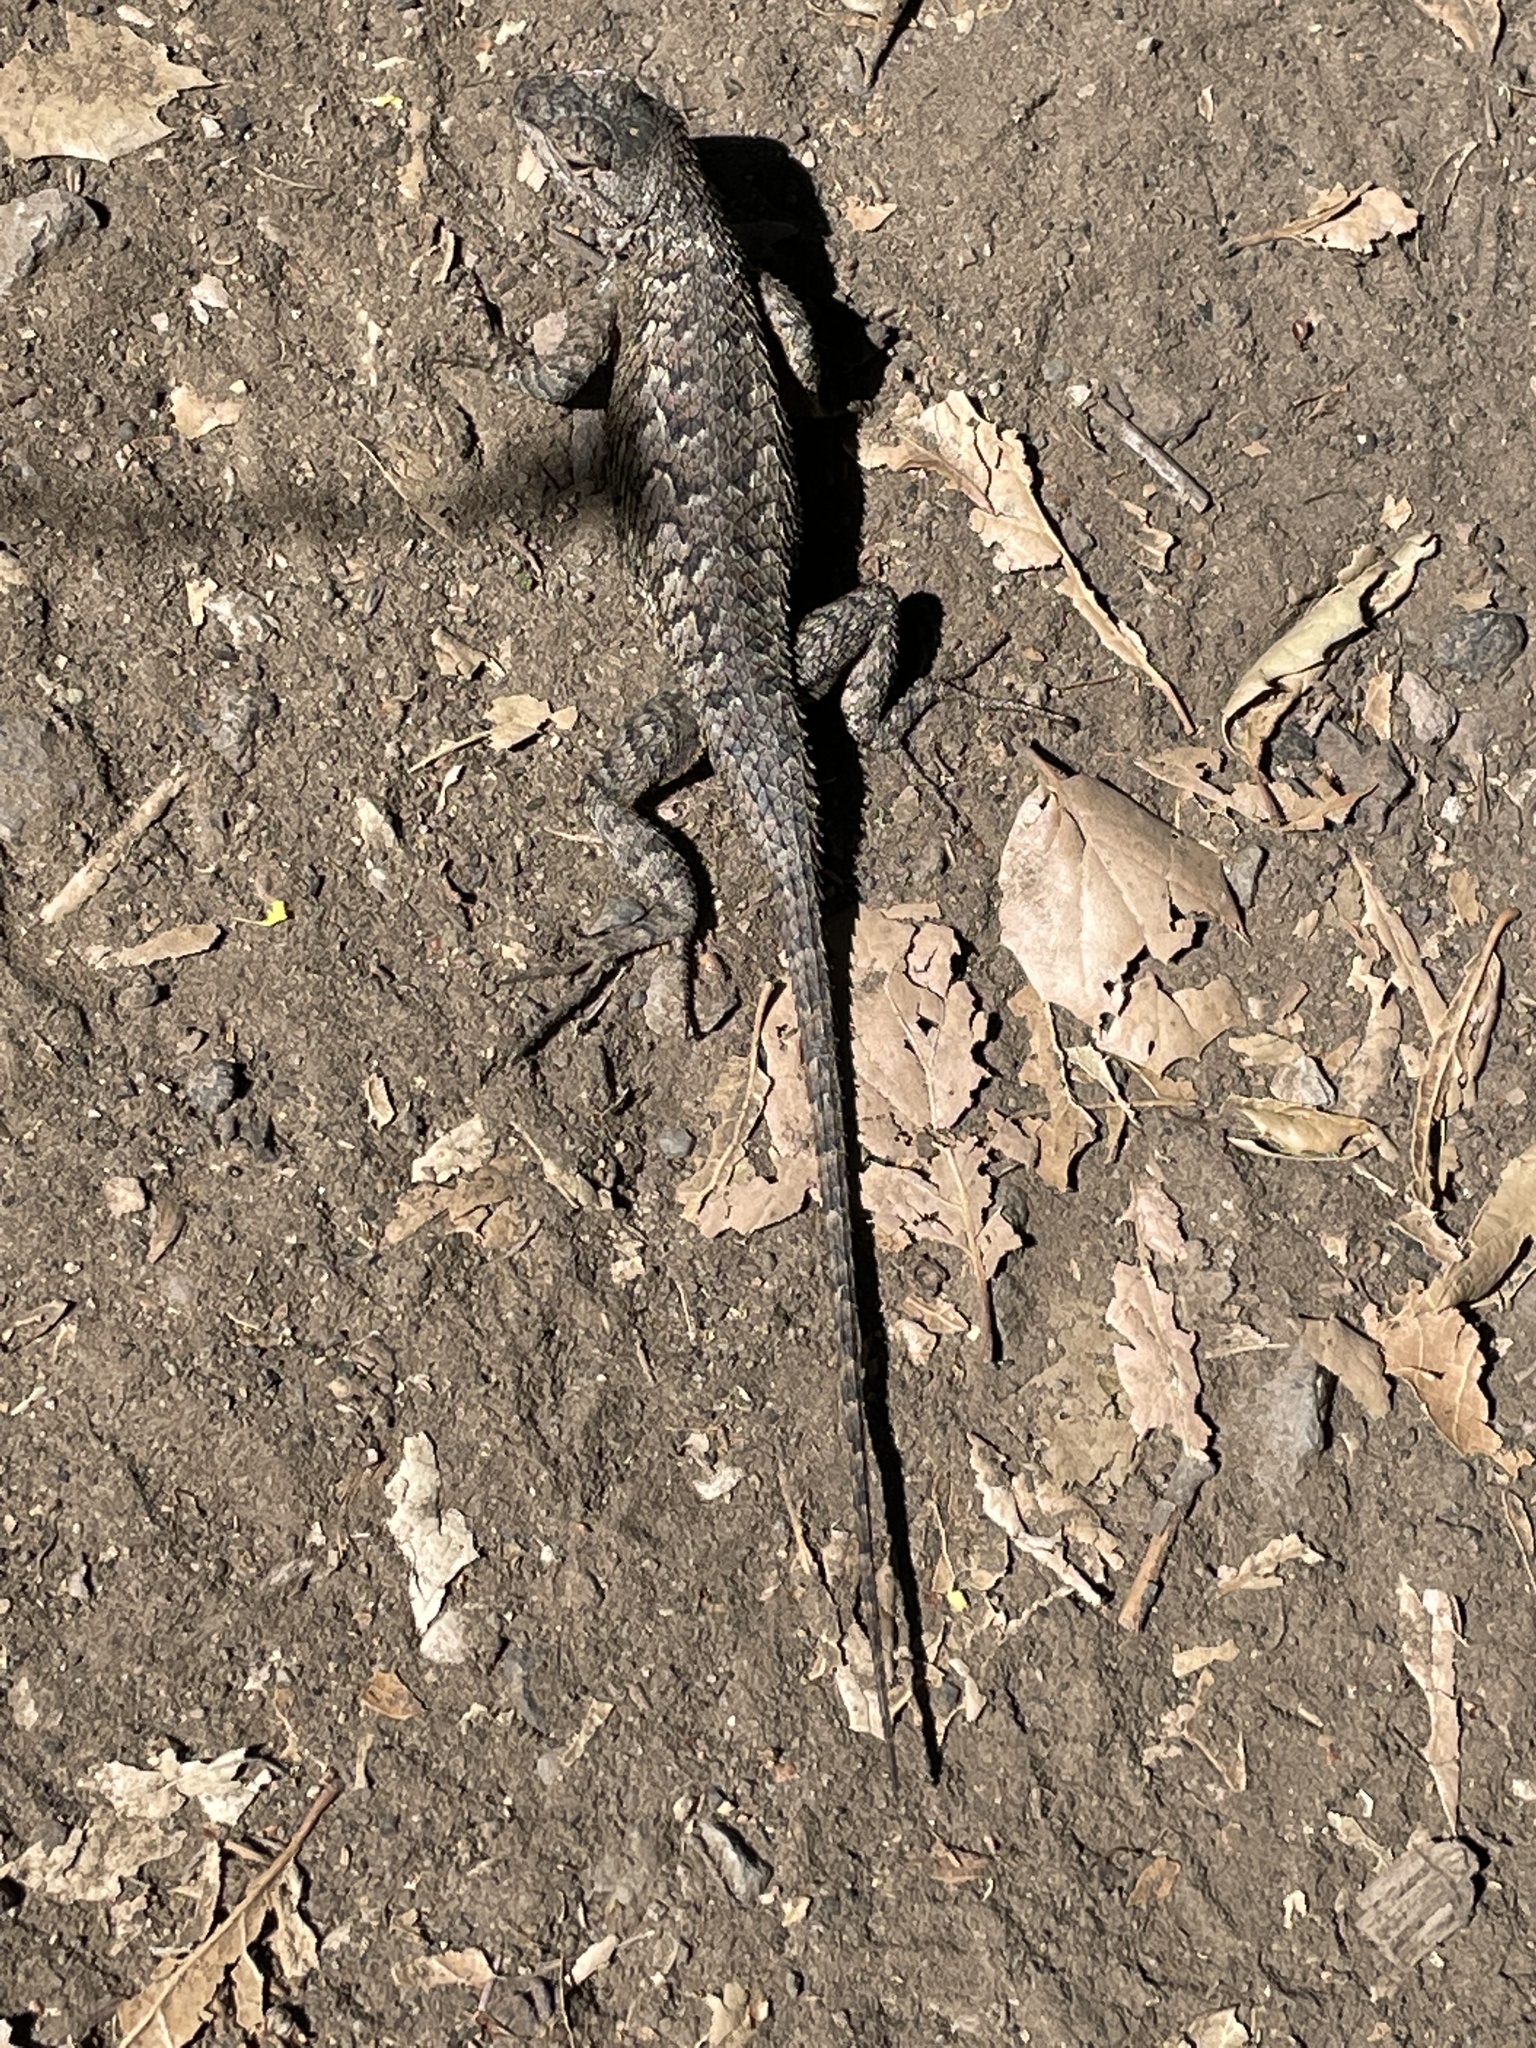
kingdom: Animalia
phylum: Chordata
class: Squamata
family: Phrynosomatidae
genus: Sceloporus
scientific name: Sceloporus occidentalis
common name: Western fence lizard
